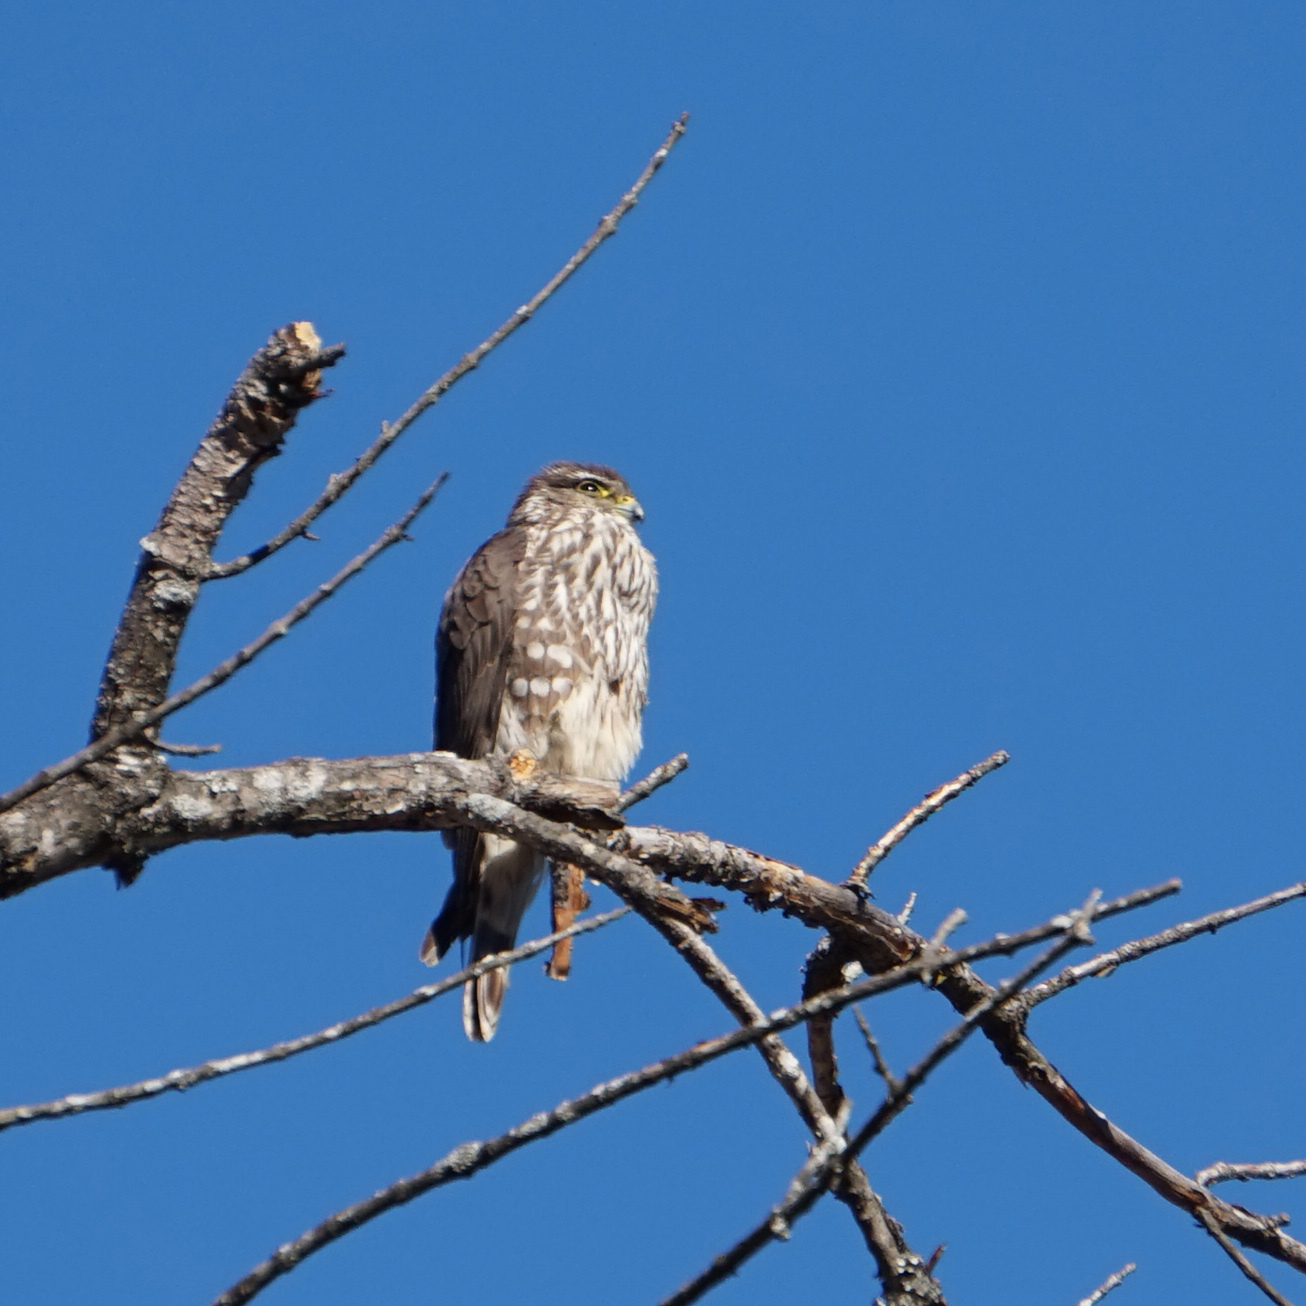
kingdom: Animalia
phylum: Chordata
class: Aves
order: Falconiformes
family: Falconidae
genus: Falco
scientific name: Falco columbarius
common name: Merlin
